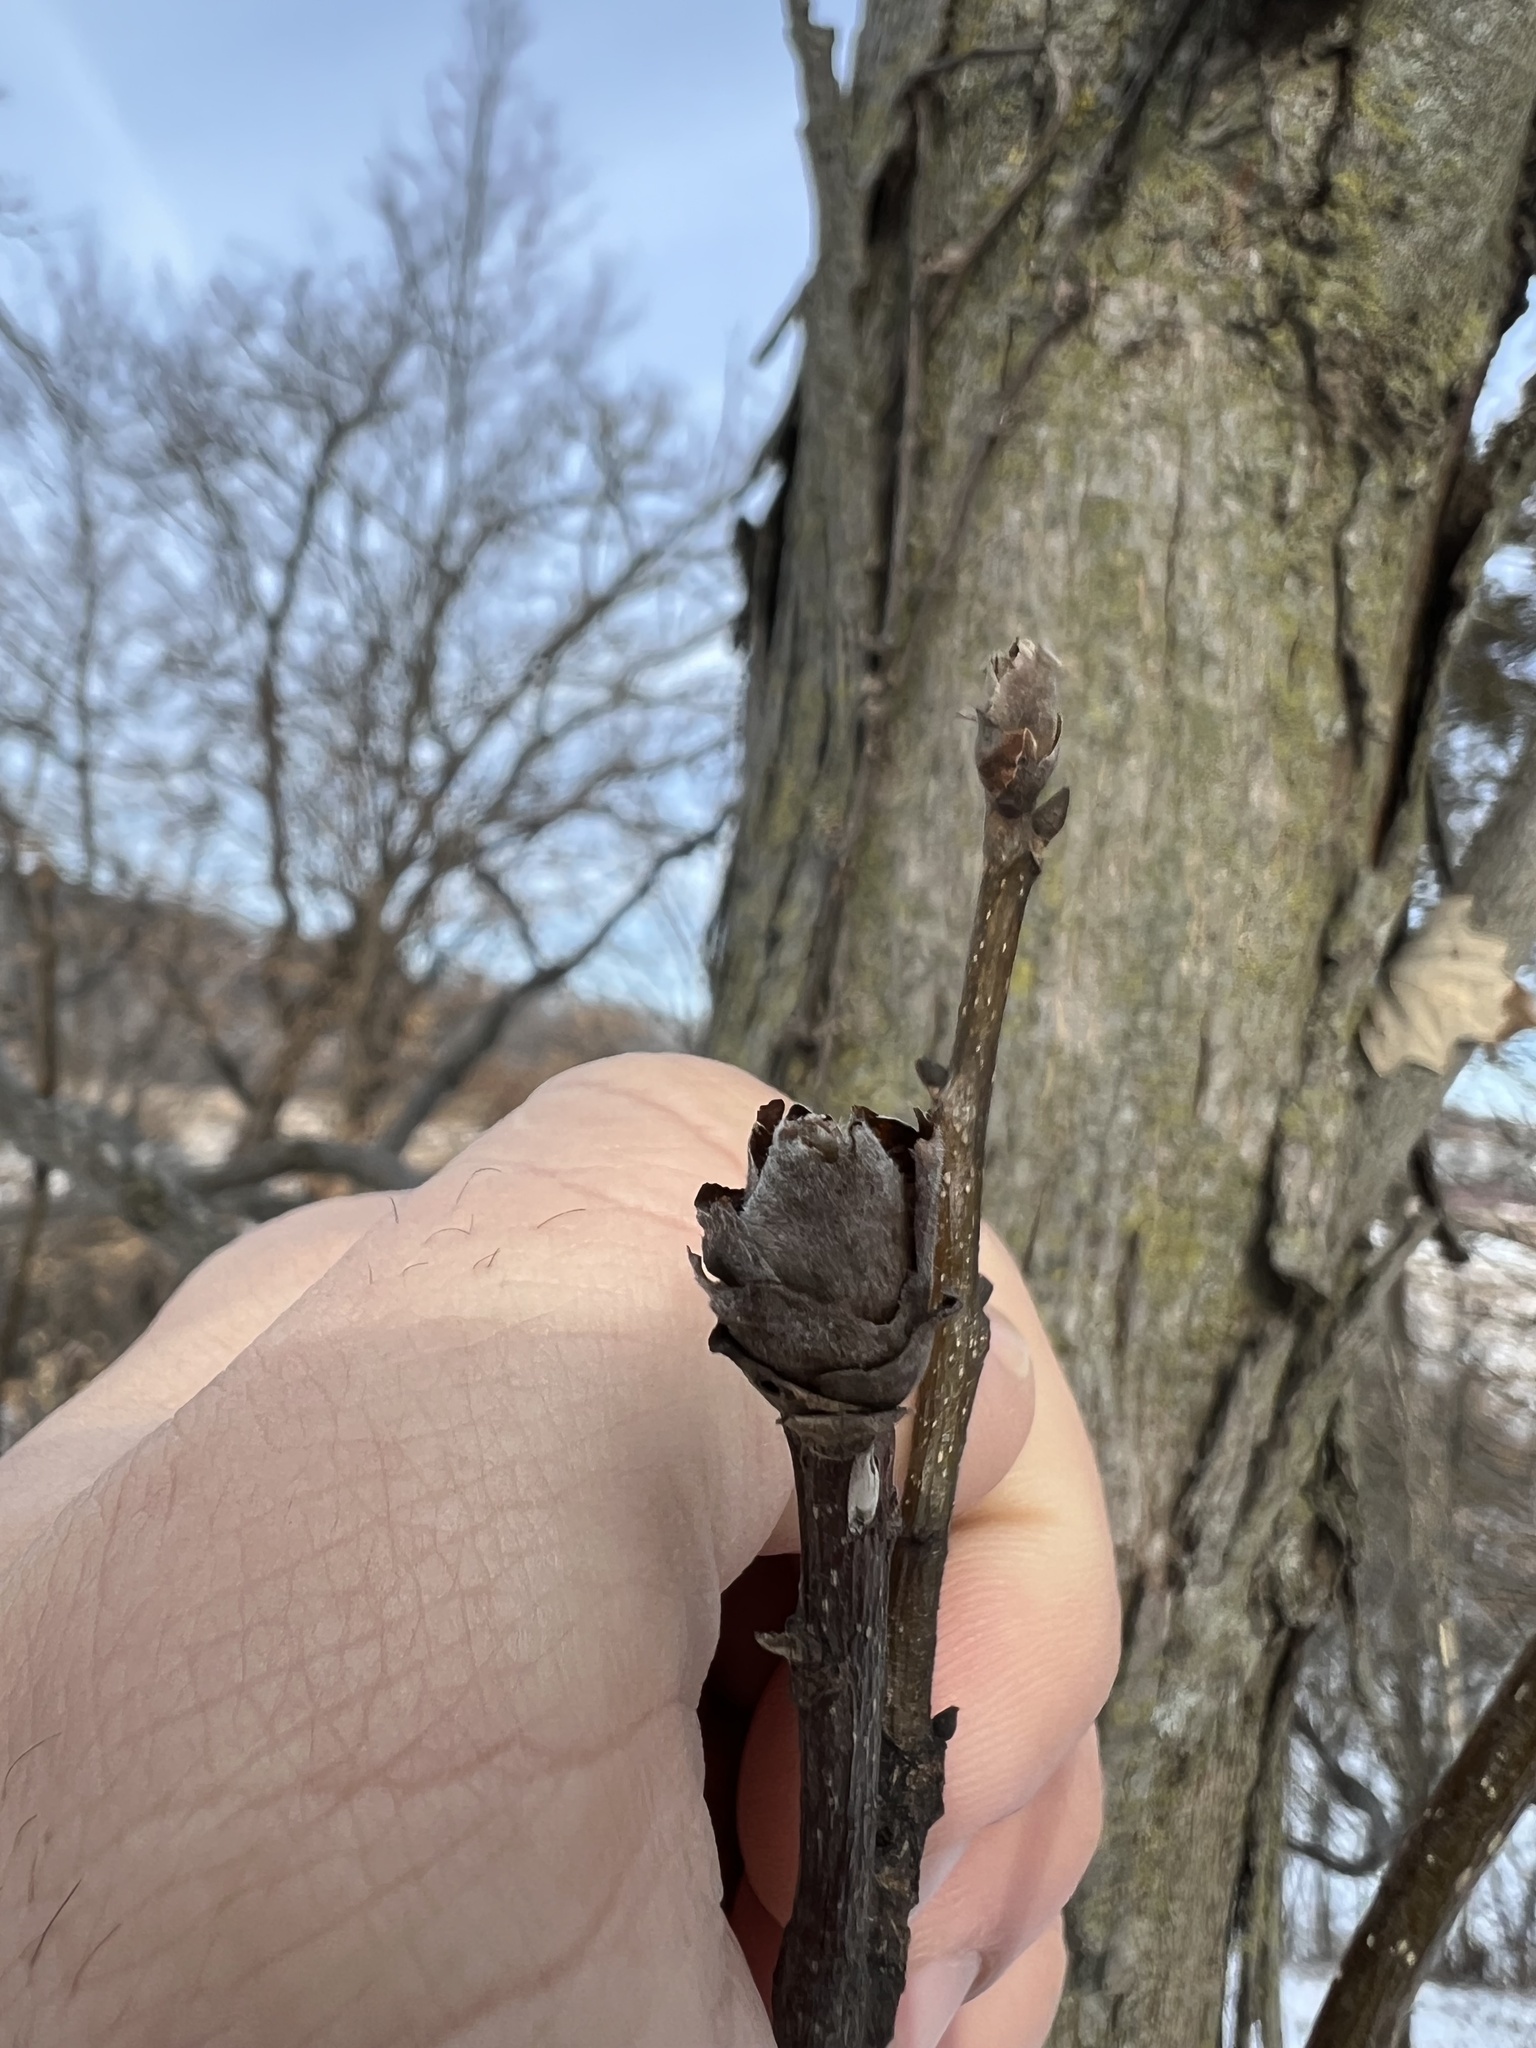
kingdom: Plantae
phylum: Tracheophyta
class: Magnoliopsida
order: Fagales
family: Juglandaceae
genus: Carya
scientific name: Carya ovata
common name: Shagbark hickory
